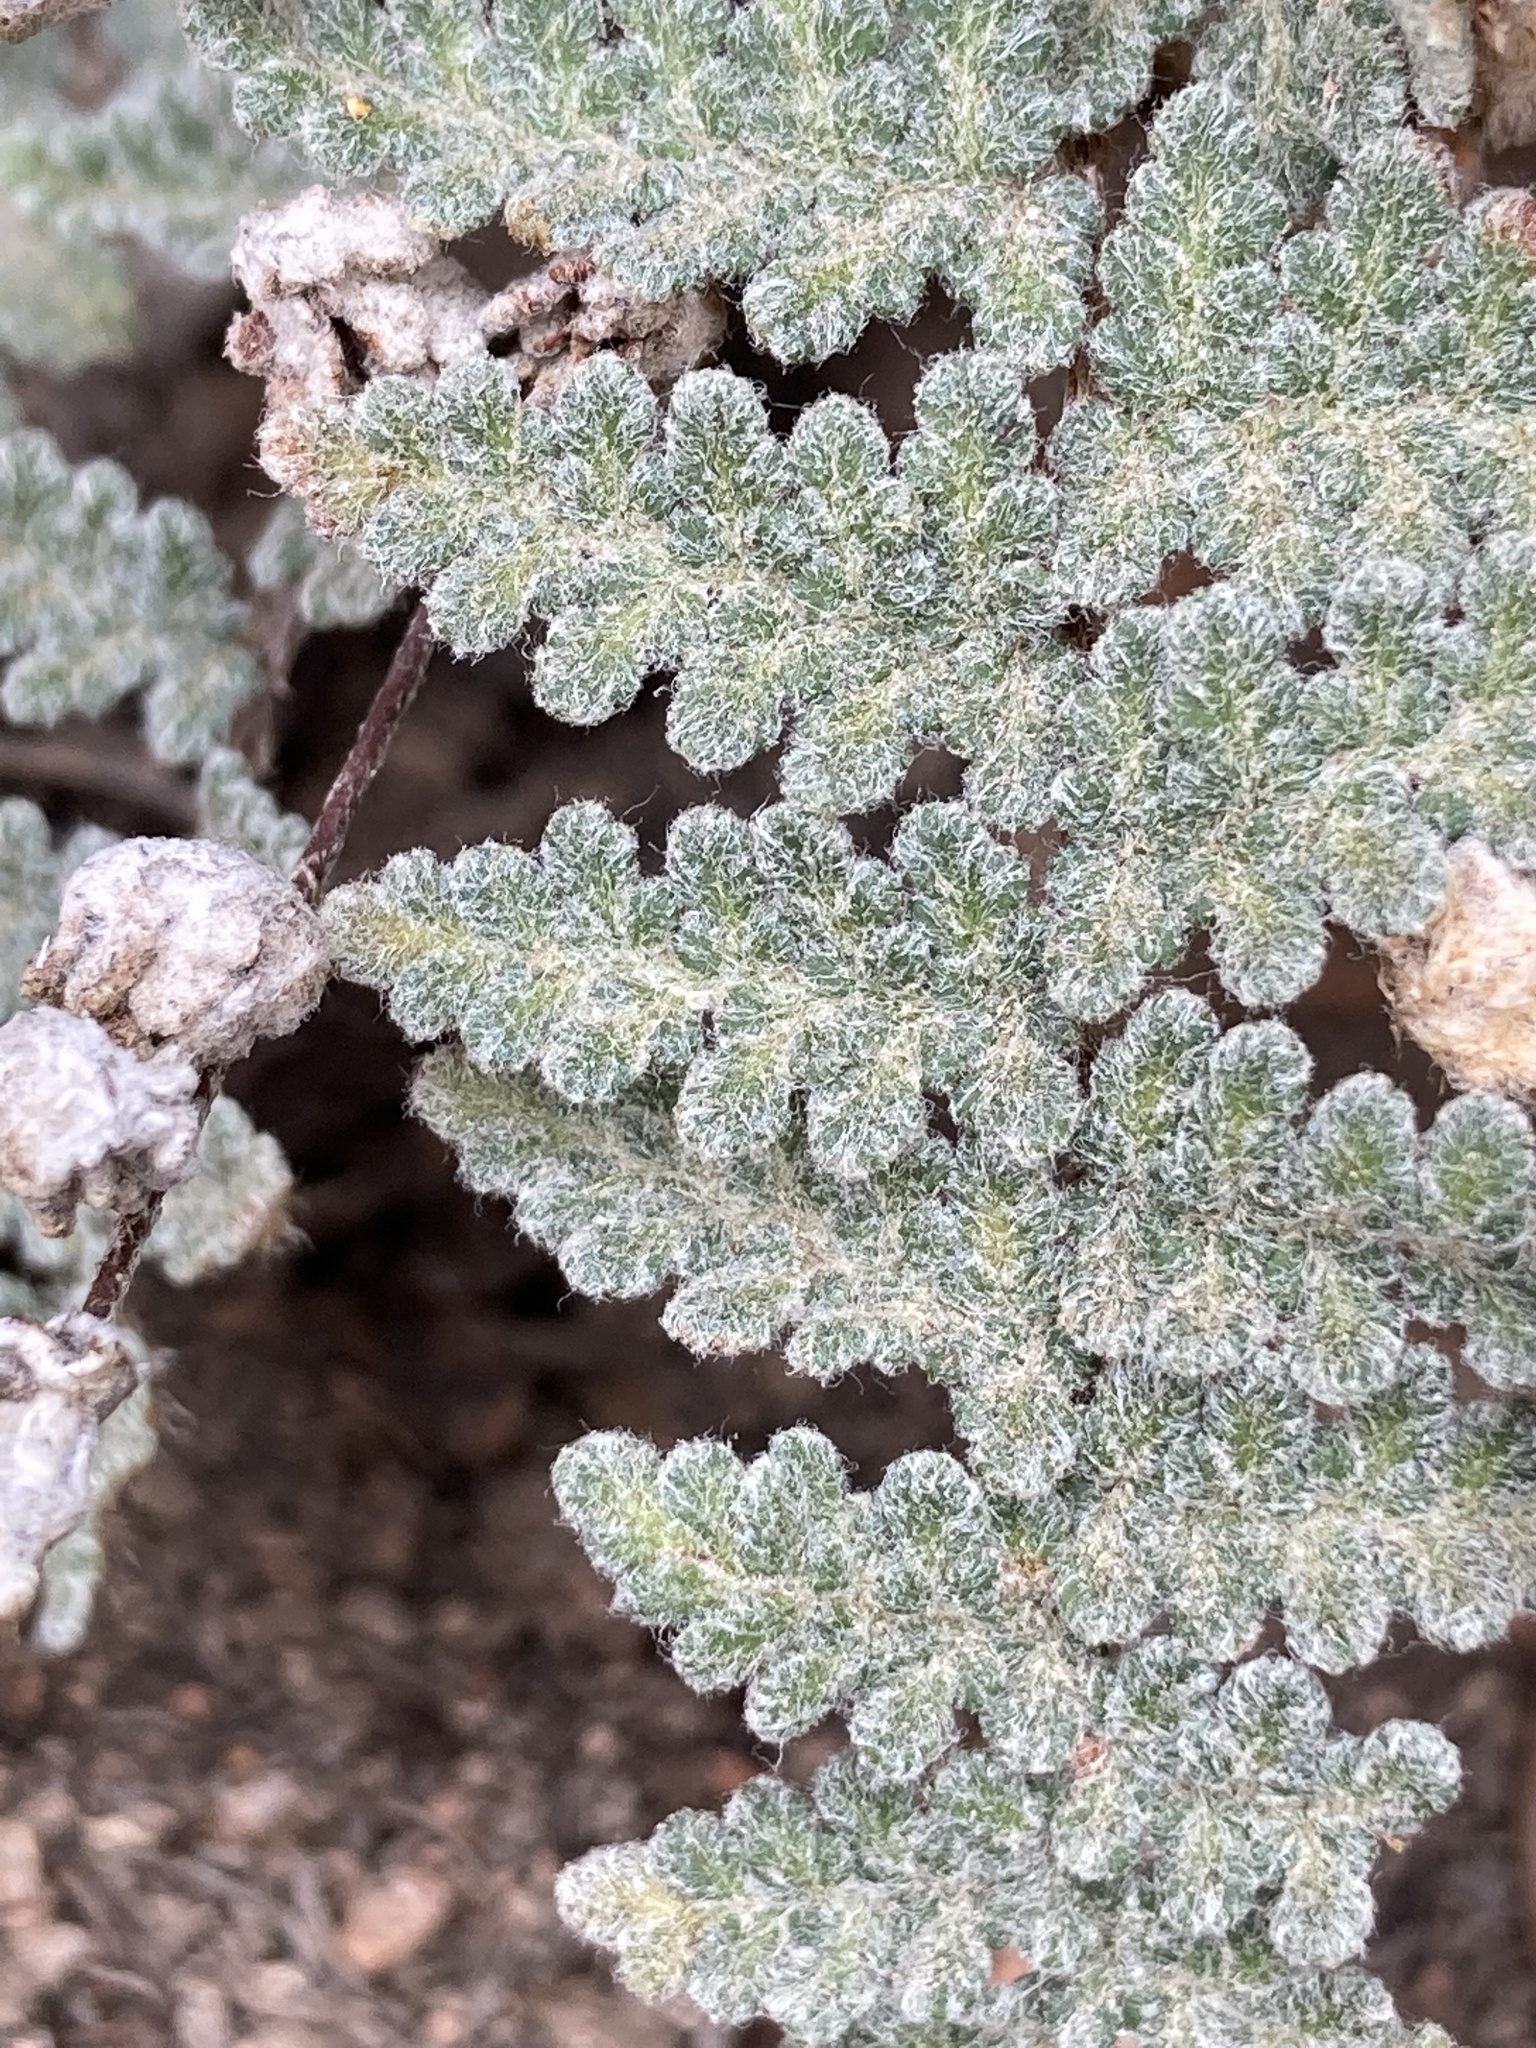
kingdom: Plantae
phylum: Tracheophyta
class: Polypodiopsida
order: Polypodiales
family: Pteridaceae
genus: Myriopteris
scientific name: Myriopteris rufa
